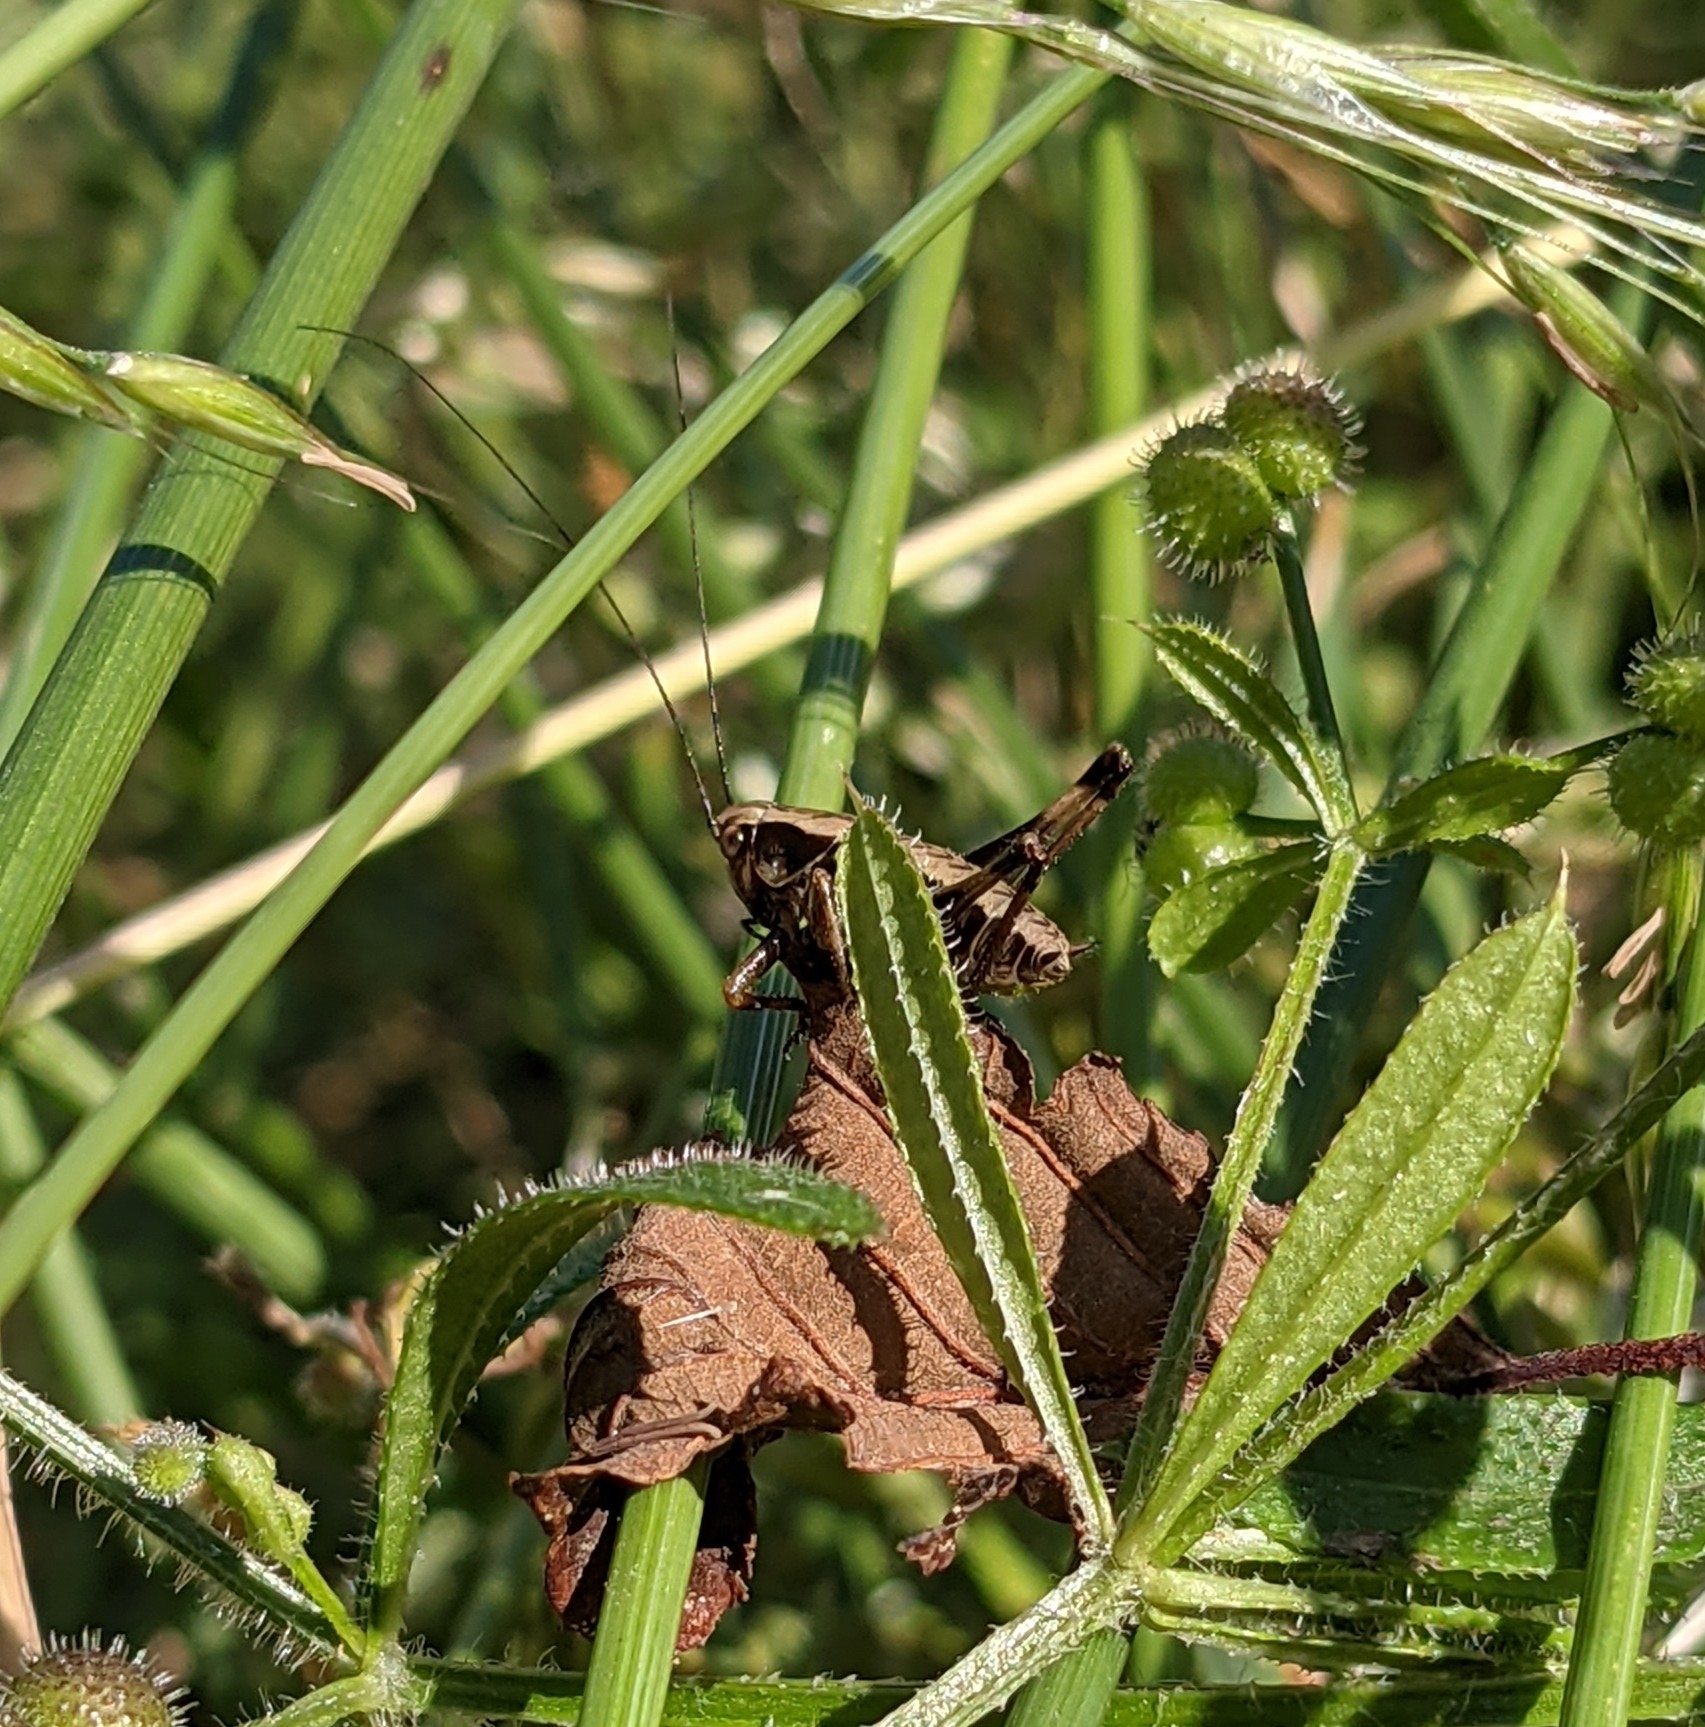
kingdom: Animalia
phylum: Arthropoda
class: Insecta
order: Orthoptera
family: Tettigoniidae
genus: Pholidoptera
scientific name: Pholidoptera griseoaptera
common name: Dark bush-cricket
